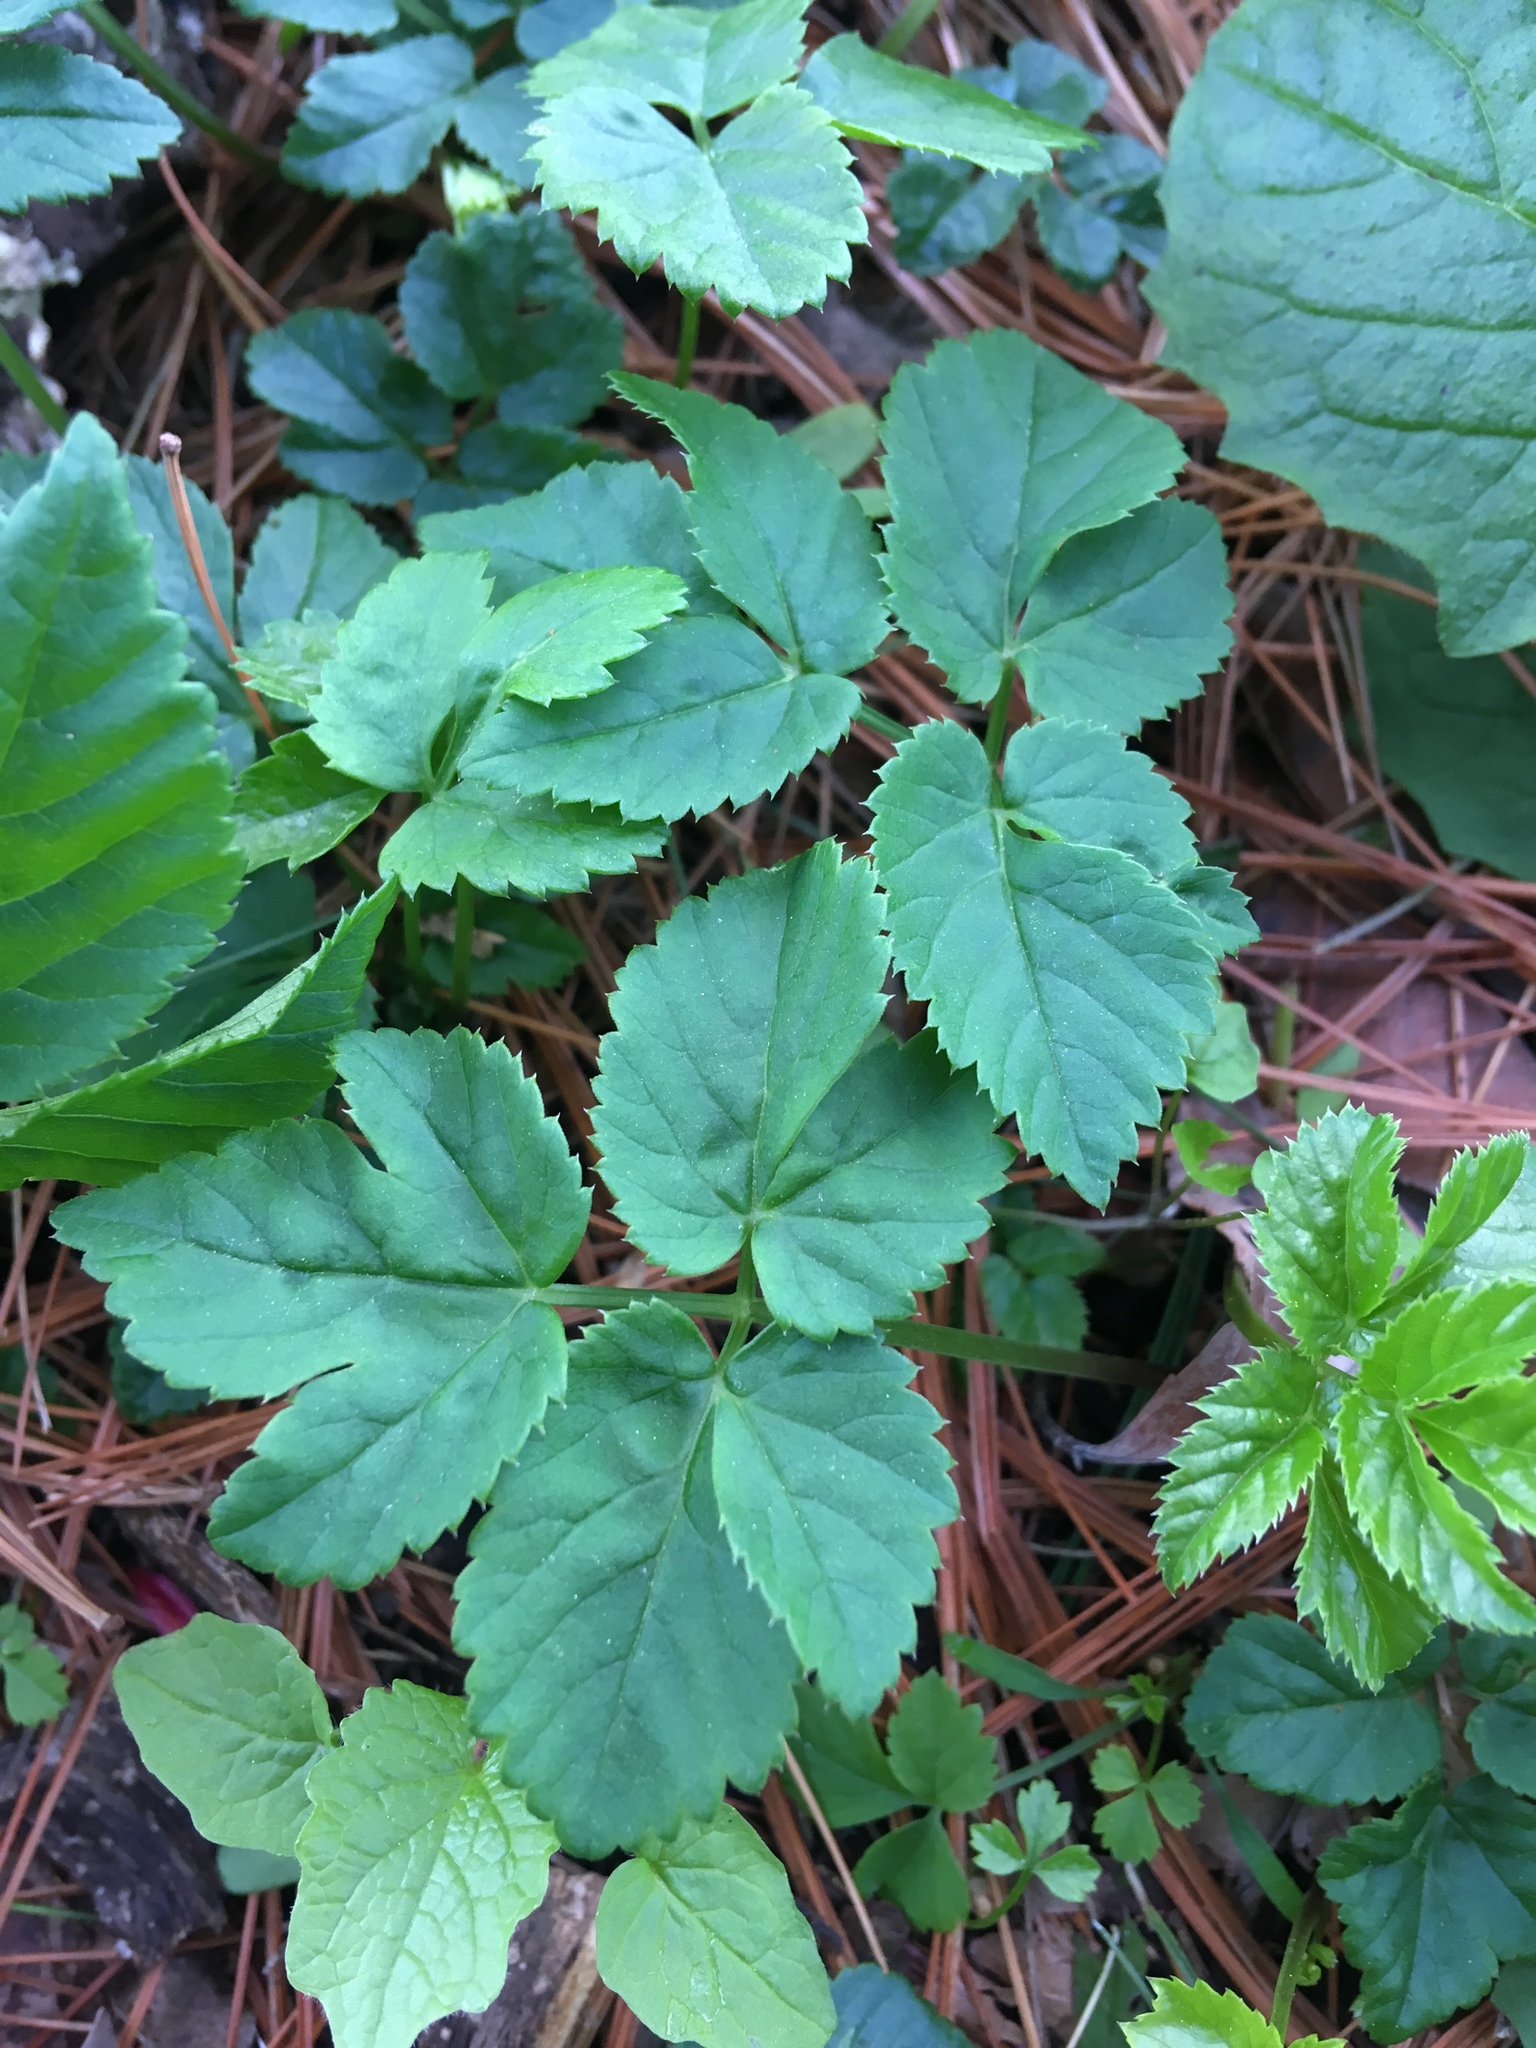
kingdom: Plantae
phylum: Tracheophyta
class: Magnoliopsida
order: Apiales
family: Apiaceae
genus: Aegopodium
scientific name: Aegopodium podagraria
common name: Ground-elder
